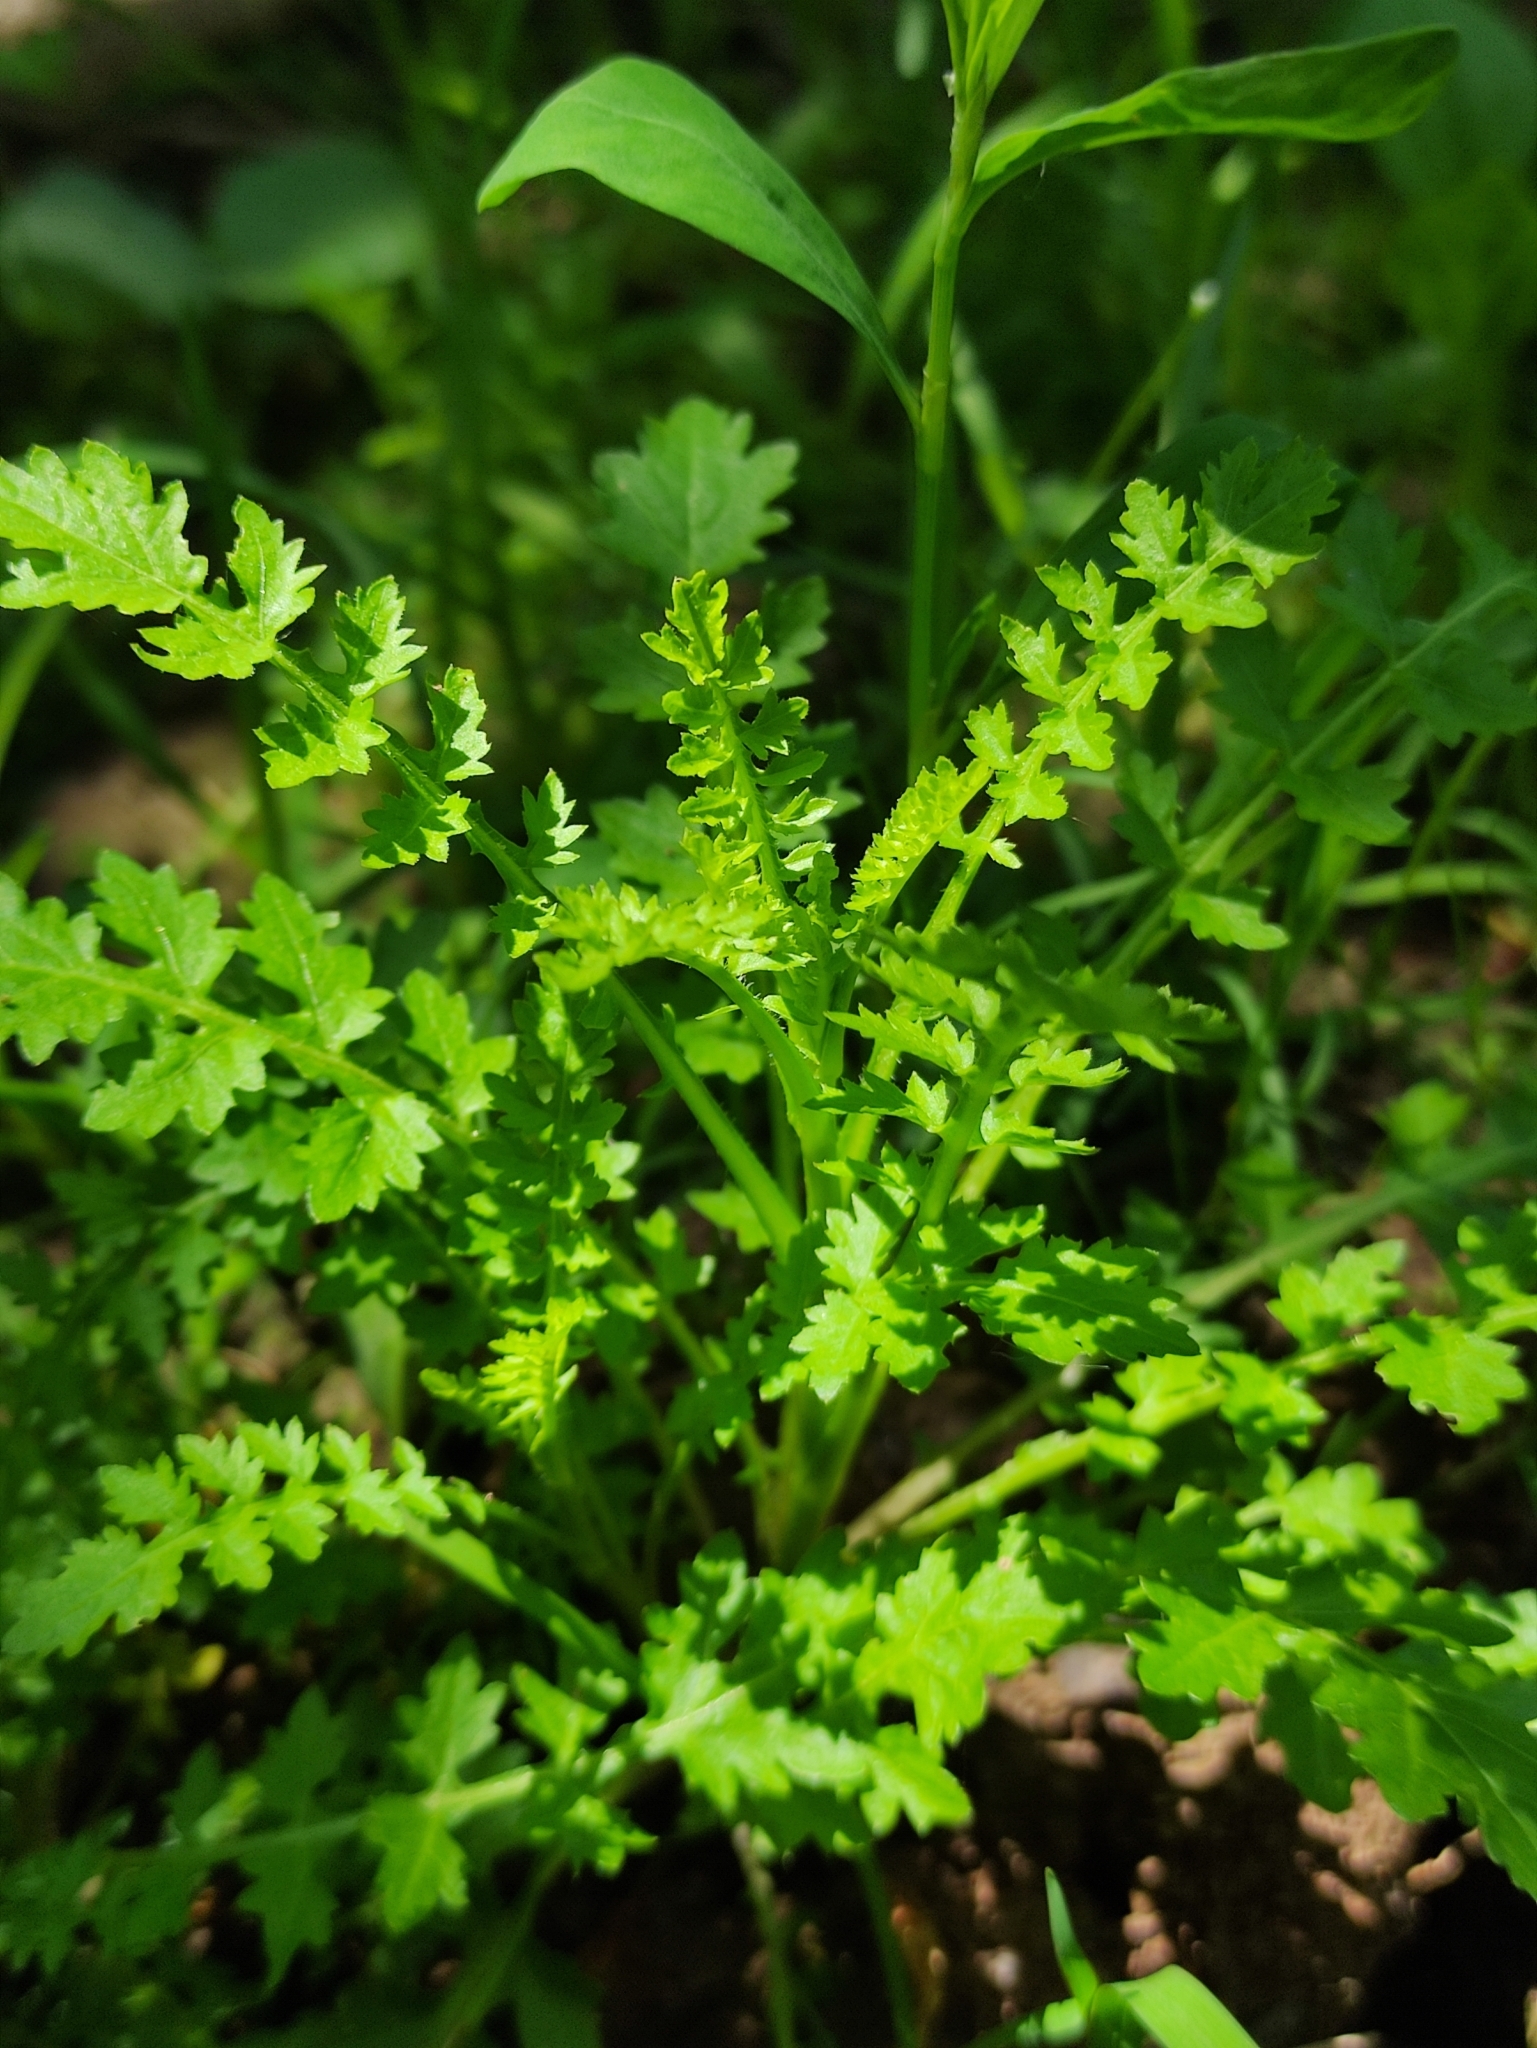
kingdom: Plantae
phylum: Tracheophyta
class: Magnoliopsida
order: Brassicales
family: Brassicaceae
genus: Rorippa
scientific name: Rorippa palustris
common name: Marsh yellow-cress
